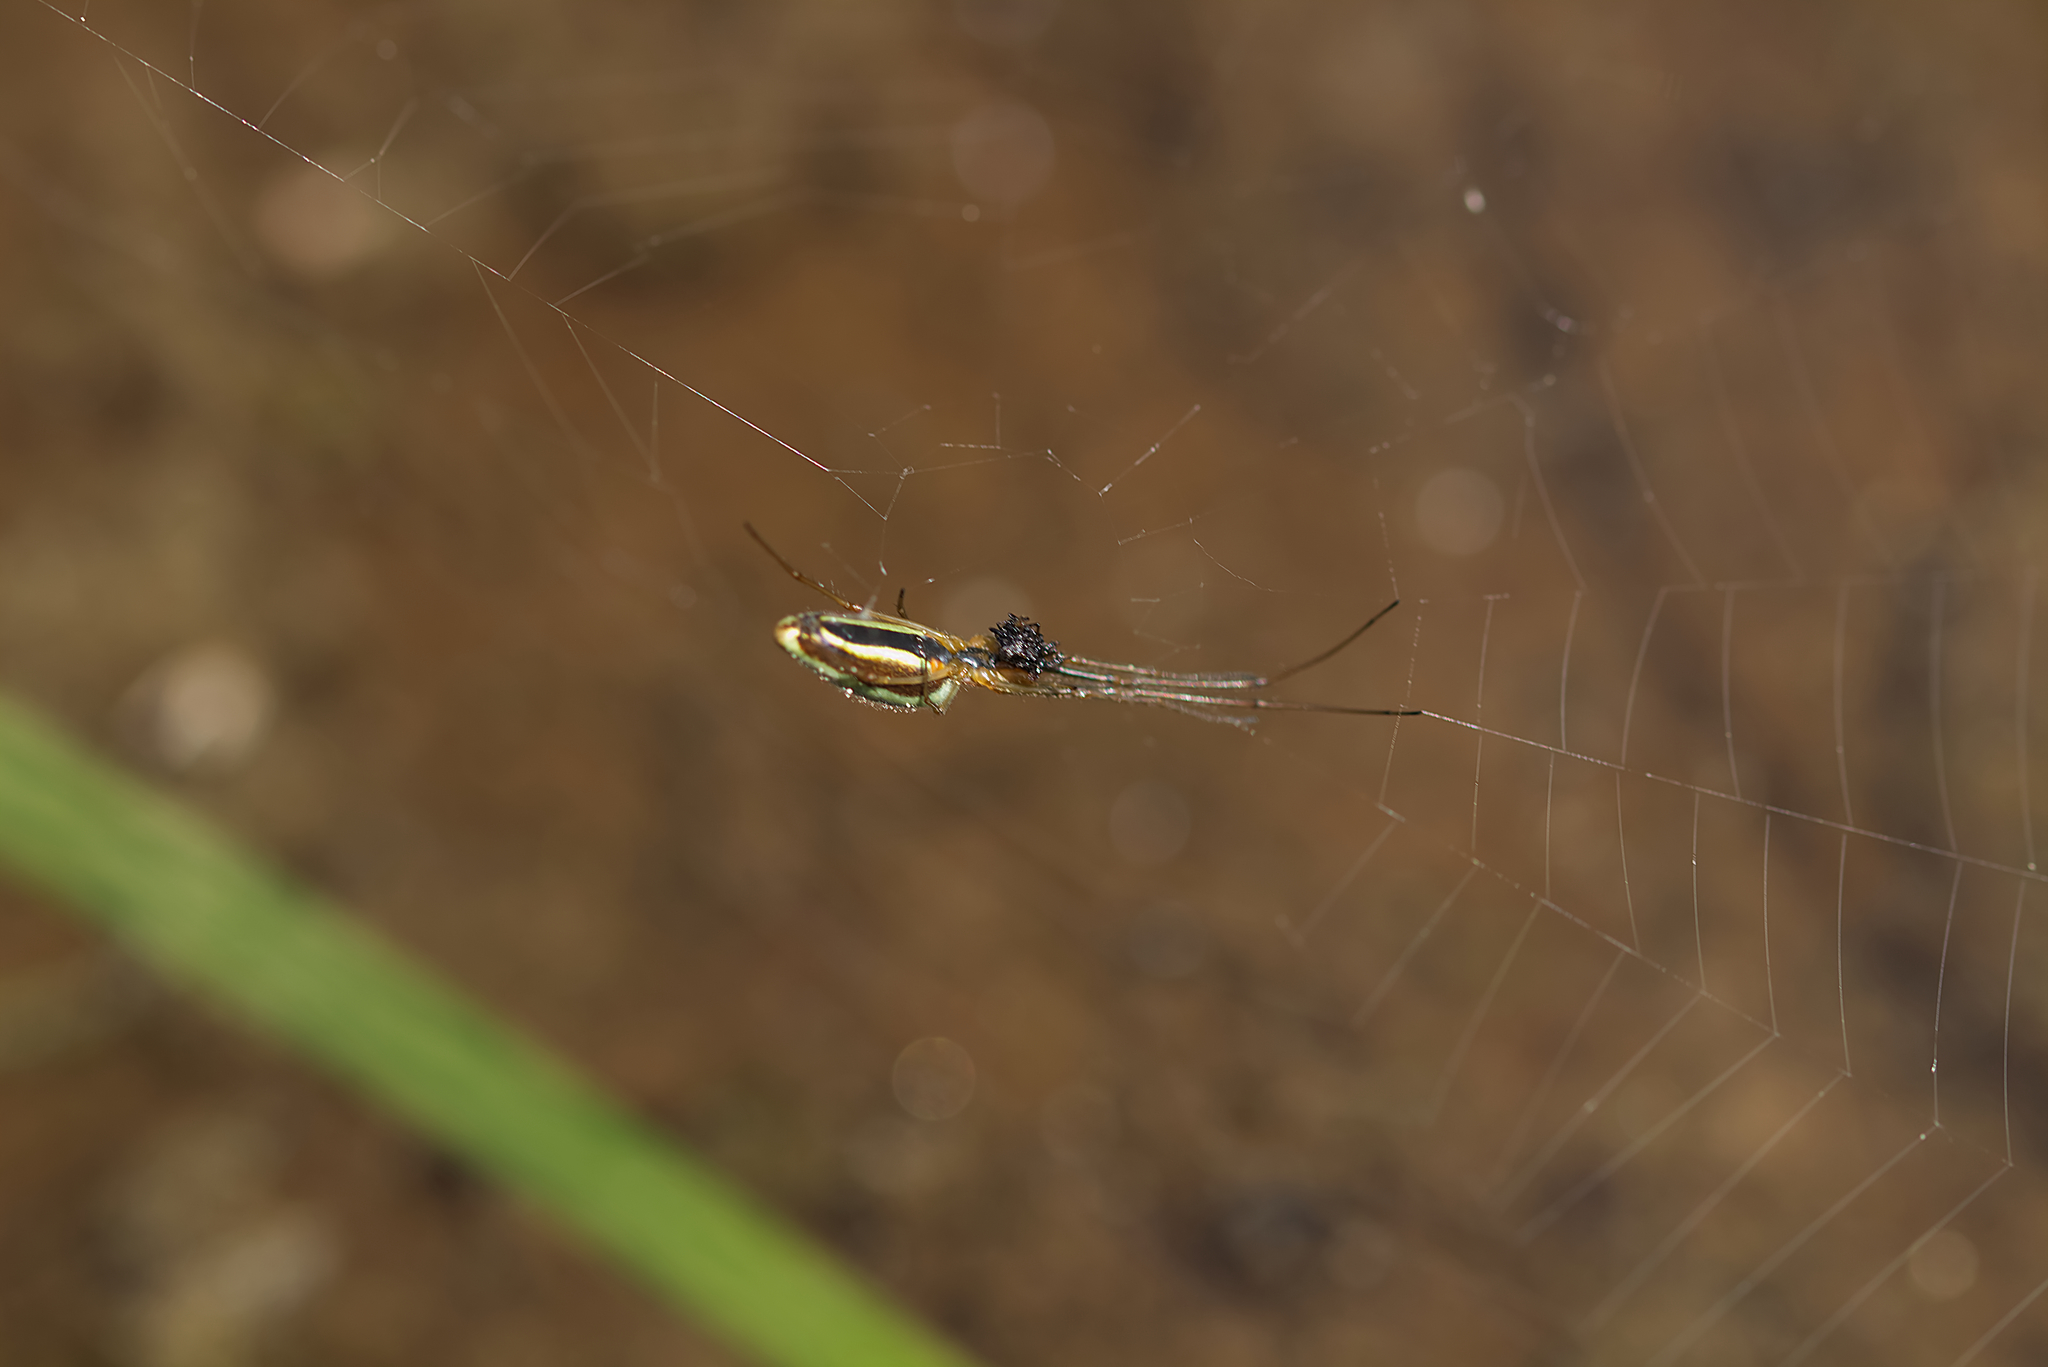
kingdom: Animalia
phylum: Arthropoda
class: Arachnida
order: Araneae
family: Tetragnathidae
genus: Tetragnatha
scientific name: Tetragnatha extensa
